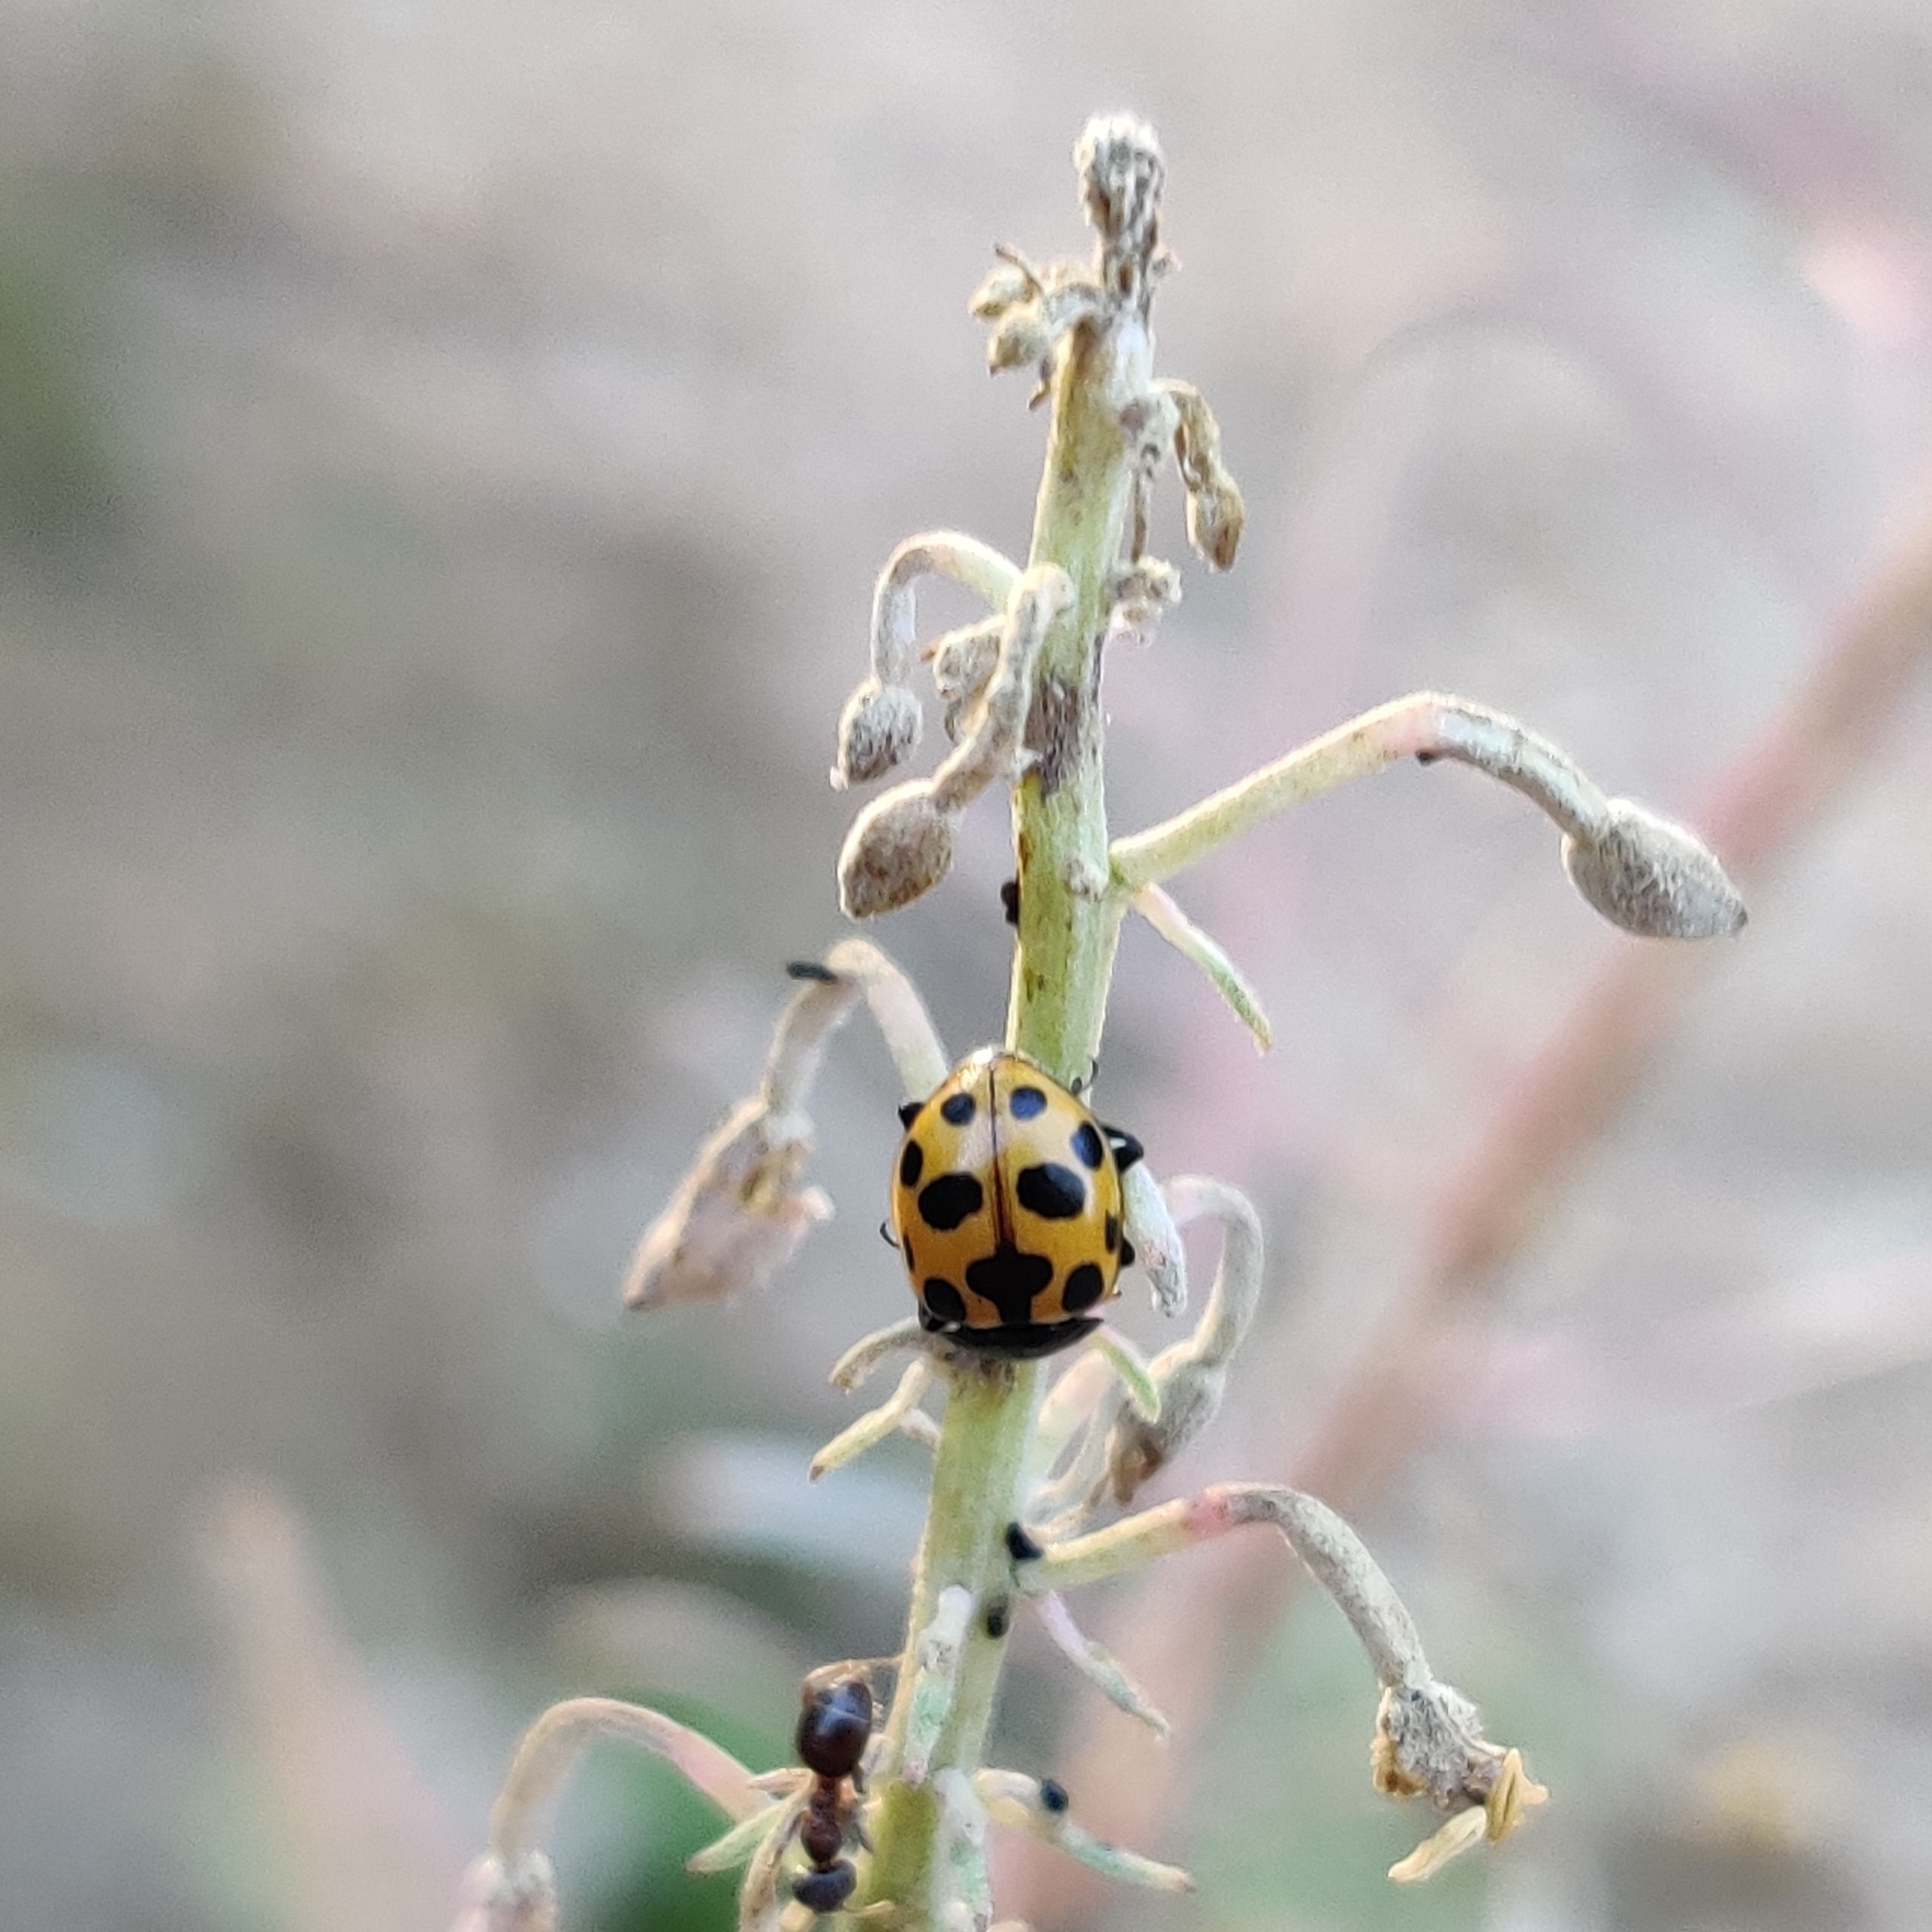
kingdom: Animalia
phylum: Arthropoda
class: Insecta
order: Coleoptera
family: Coccinellidae
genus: Ceratomegilla
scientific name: Ceratomegilla notata
